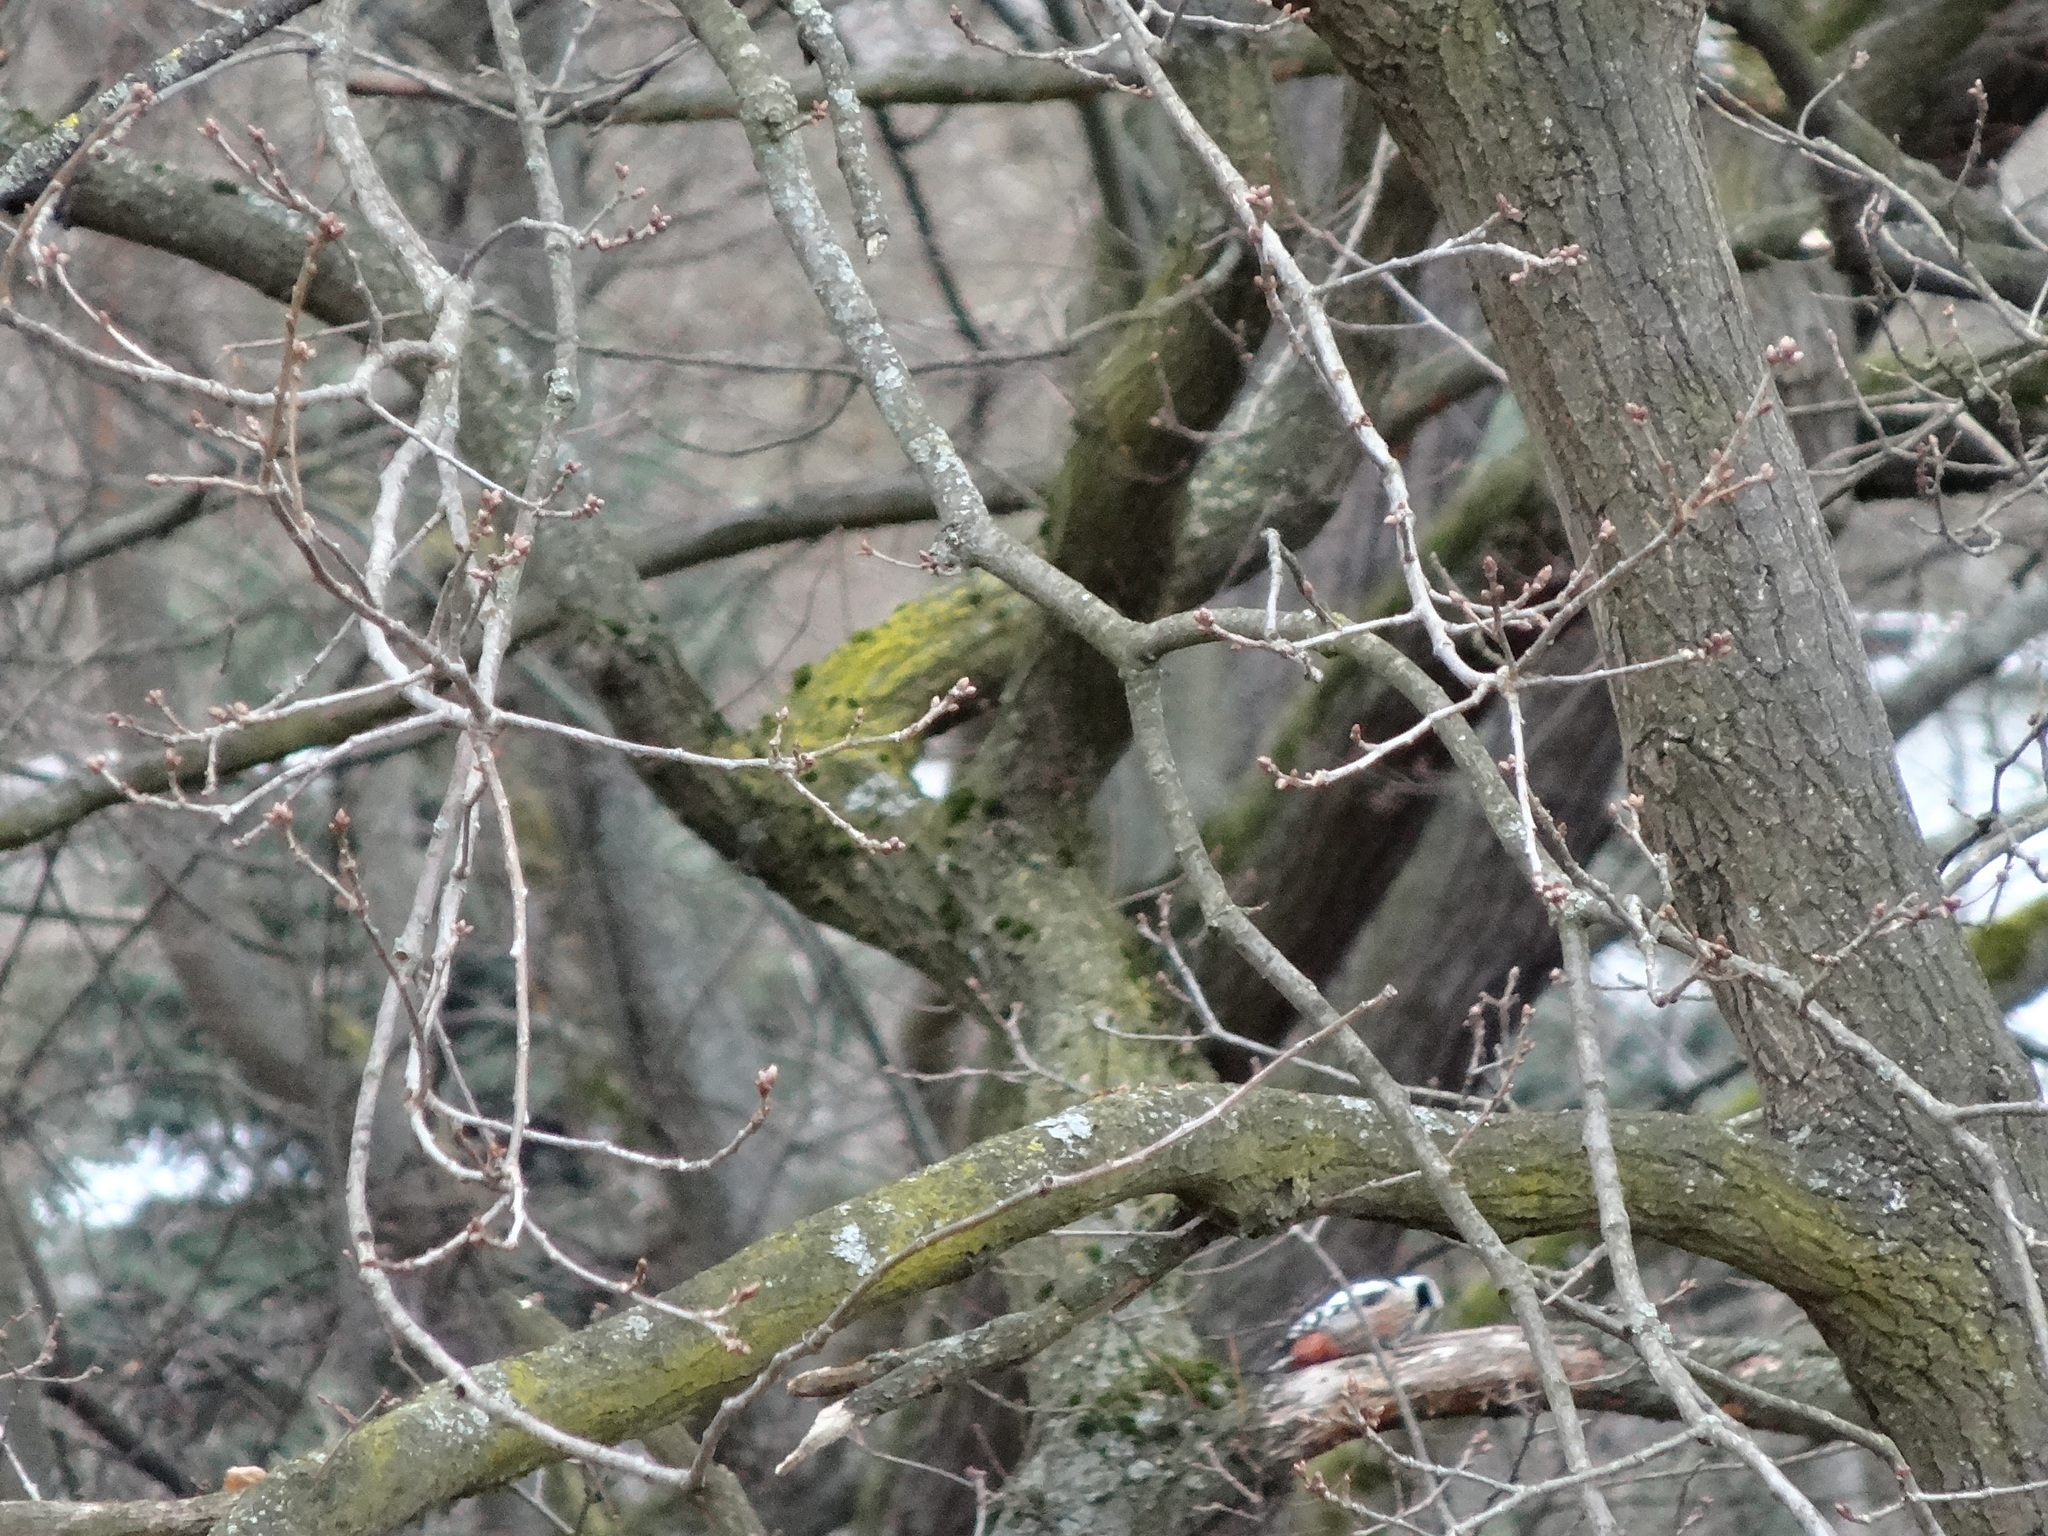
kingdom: Animalia
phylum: Chordata
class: Aves
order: Piciformes
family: Picidae
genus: Dendrocoptes
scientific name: Dendrocoptes medius
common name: Middle spotted woodpecker
